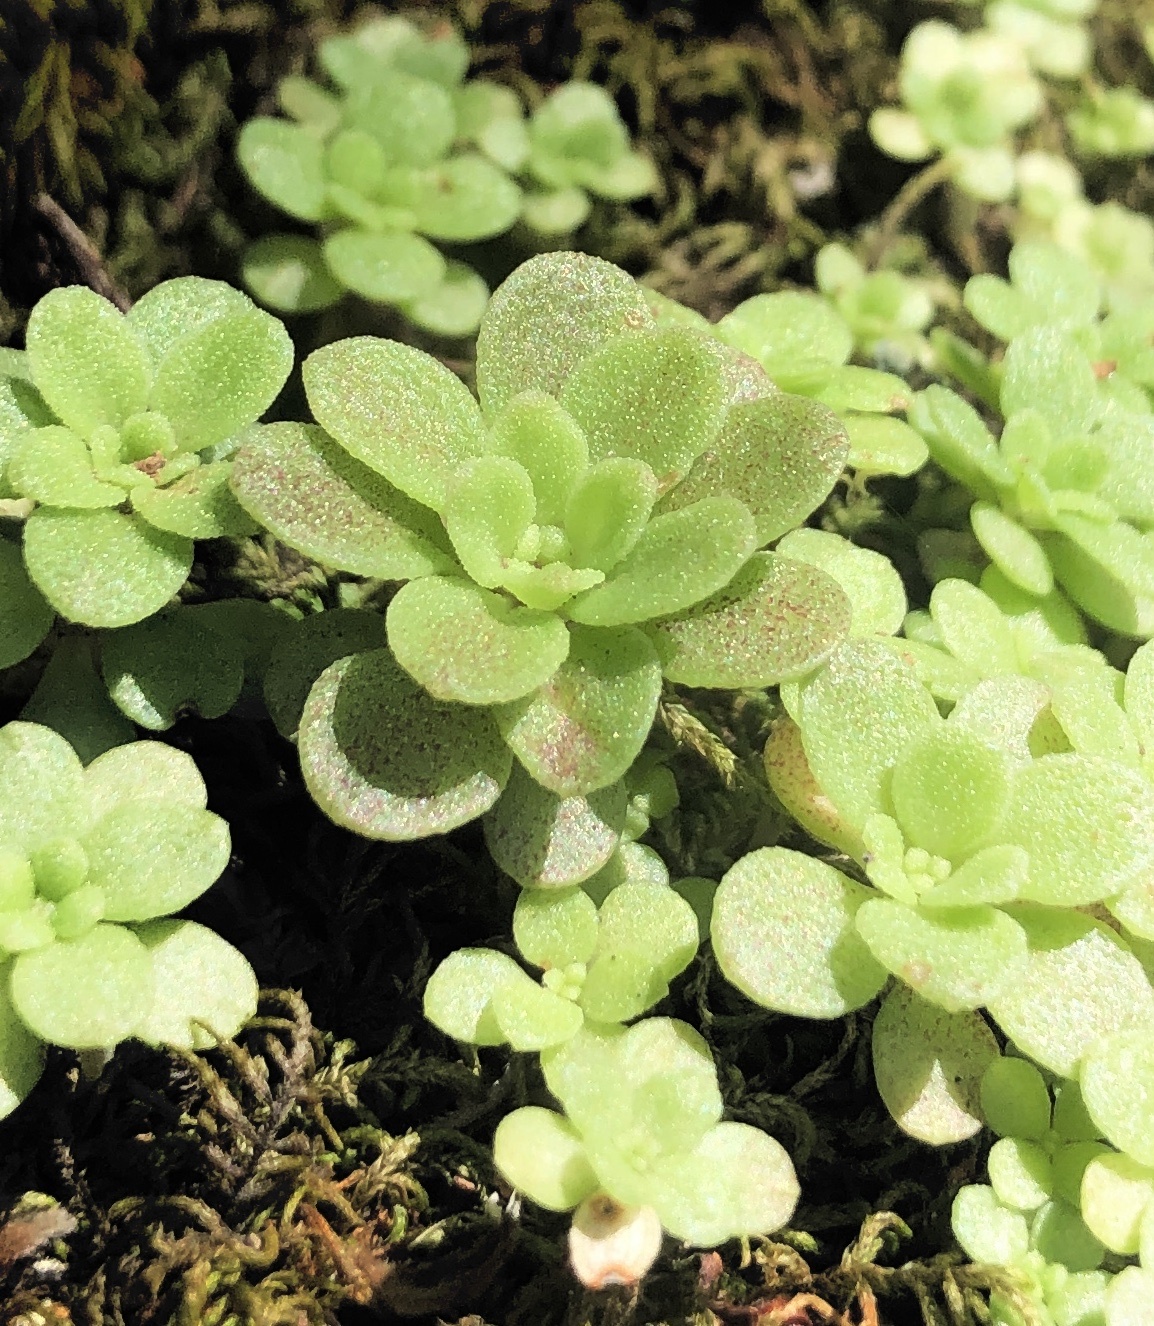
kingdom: Plantae
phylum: Tracheophyta
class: Magnoliopsida
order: Saxifragales
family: Crassulaceae
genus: Sedum
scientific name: Sedum cepaea
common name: Pink stonecrop
